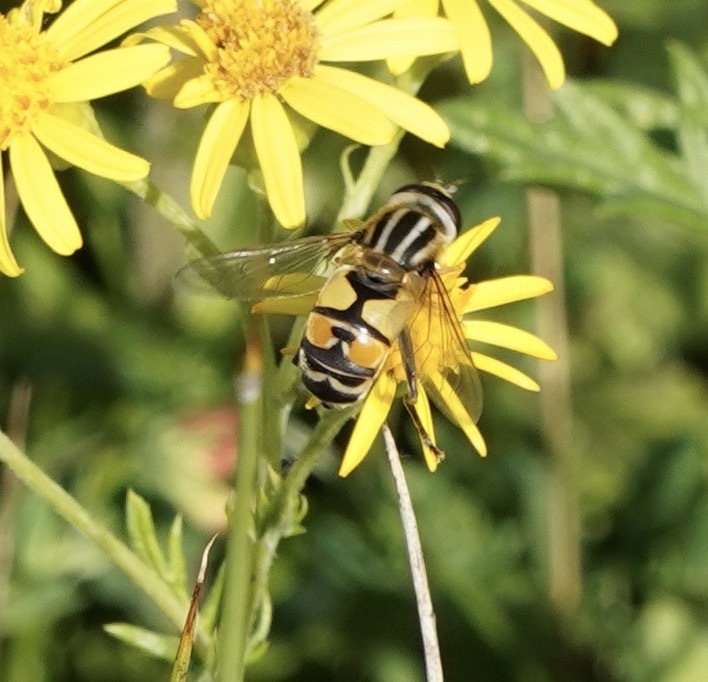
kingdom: Animalia
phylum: Arthropoda
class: Insecta
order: Diptera
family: Syrphidae
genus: Helophilus
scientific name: Helophilus trivittatus
